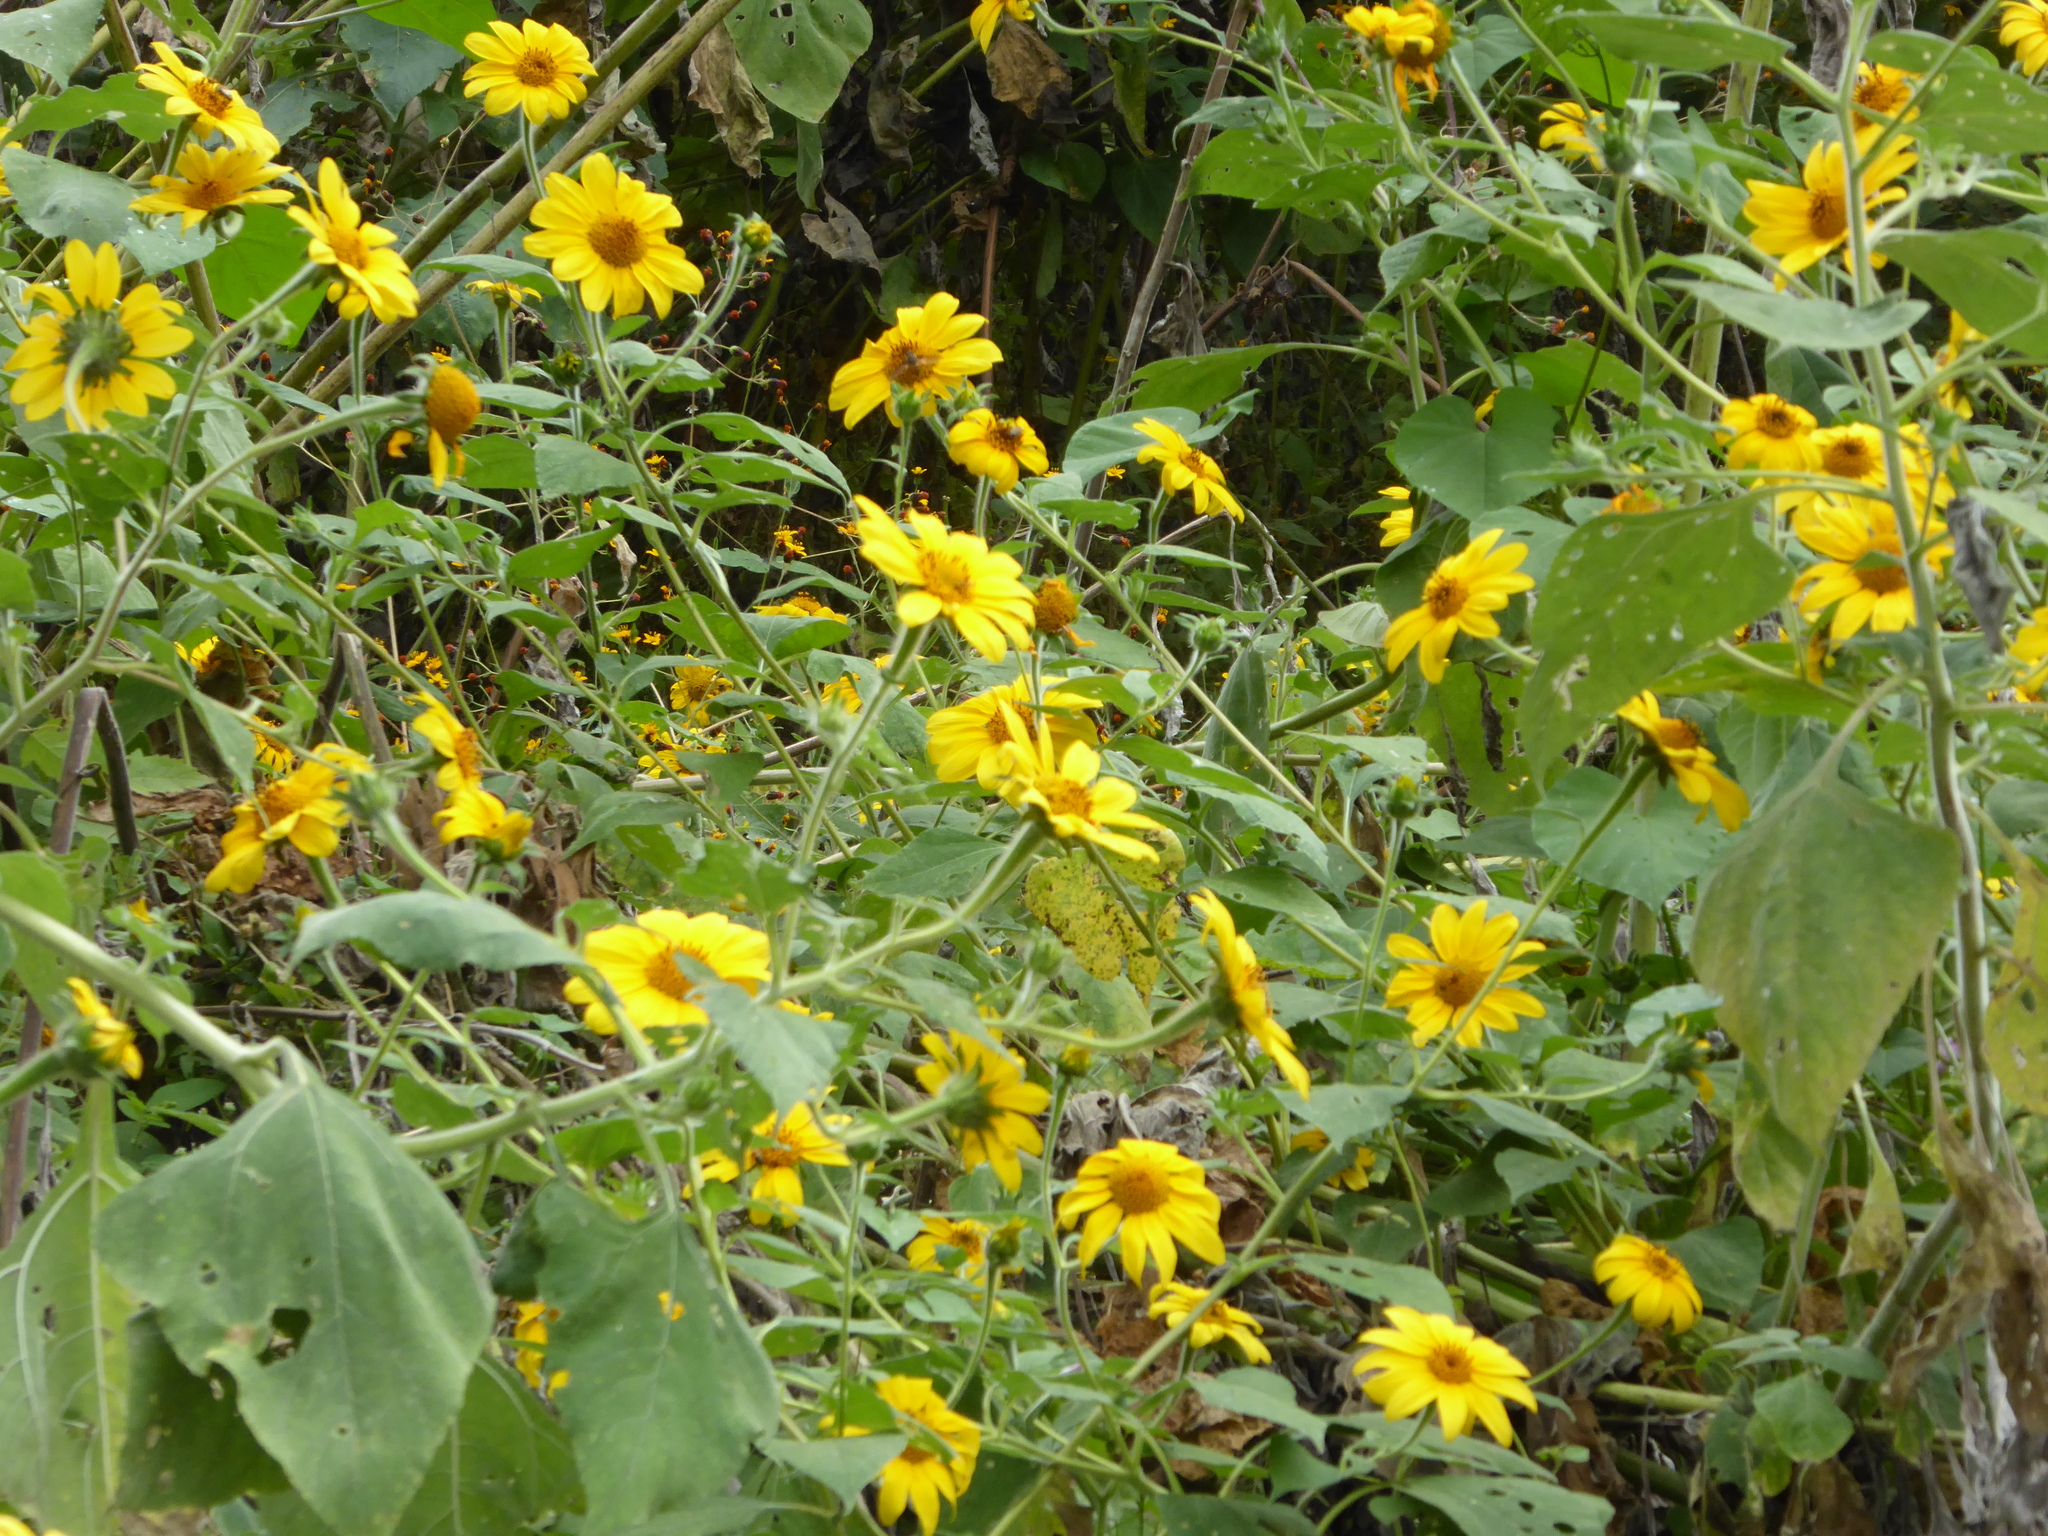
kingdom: Plantae
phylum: Tracheophyta
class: Magnoliopsida
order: Asterales
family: Asteraceae
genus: Tithonia
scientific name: Tithonia tubaeformis
